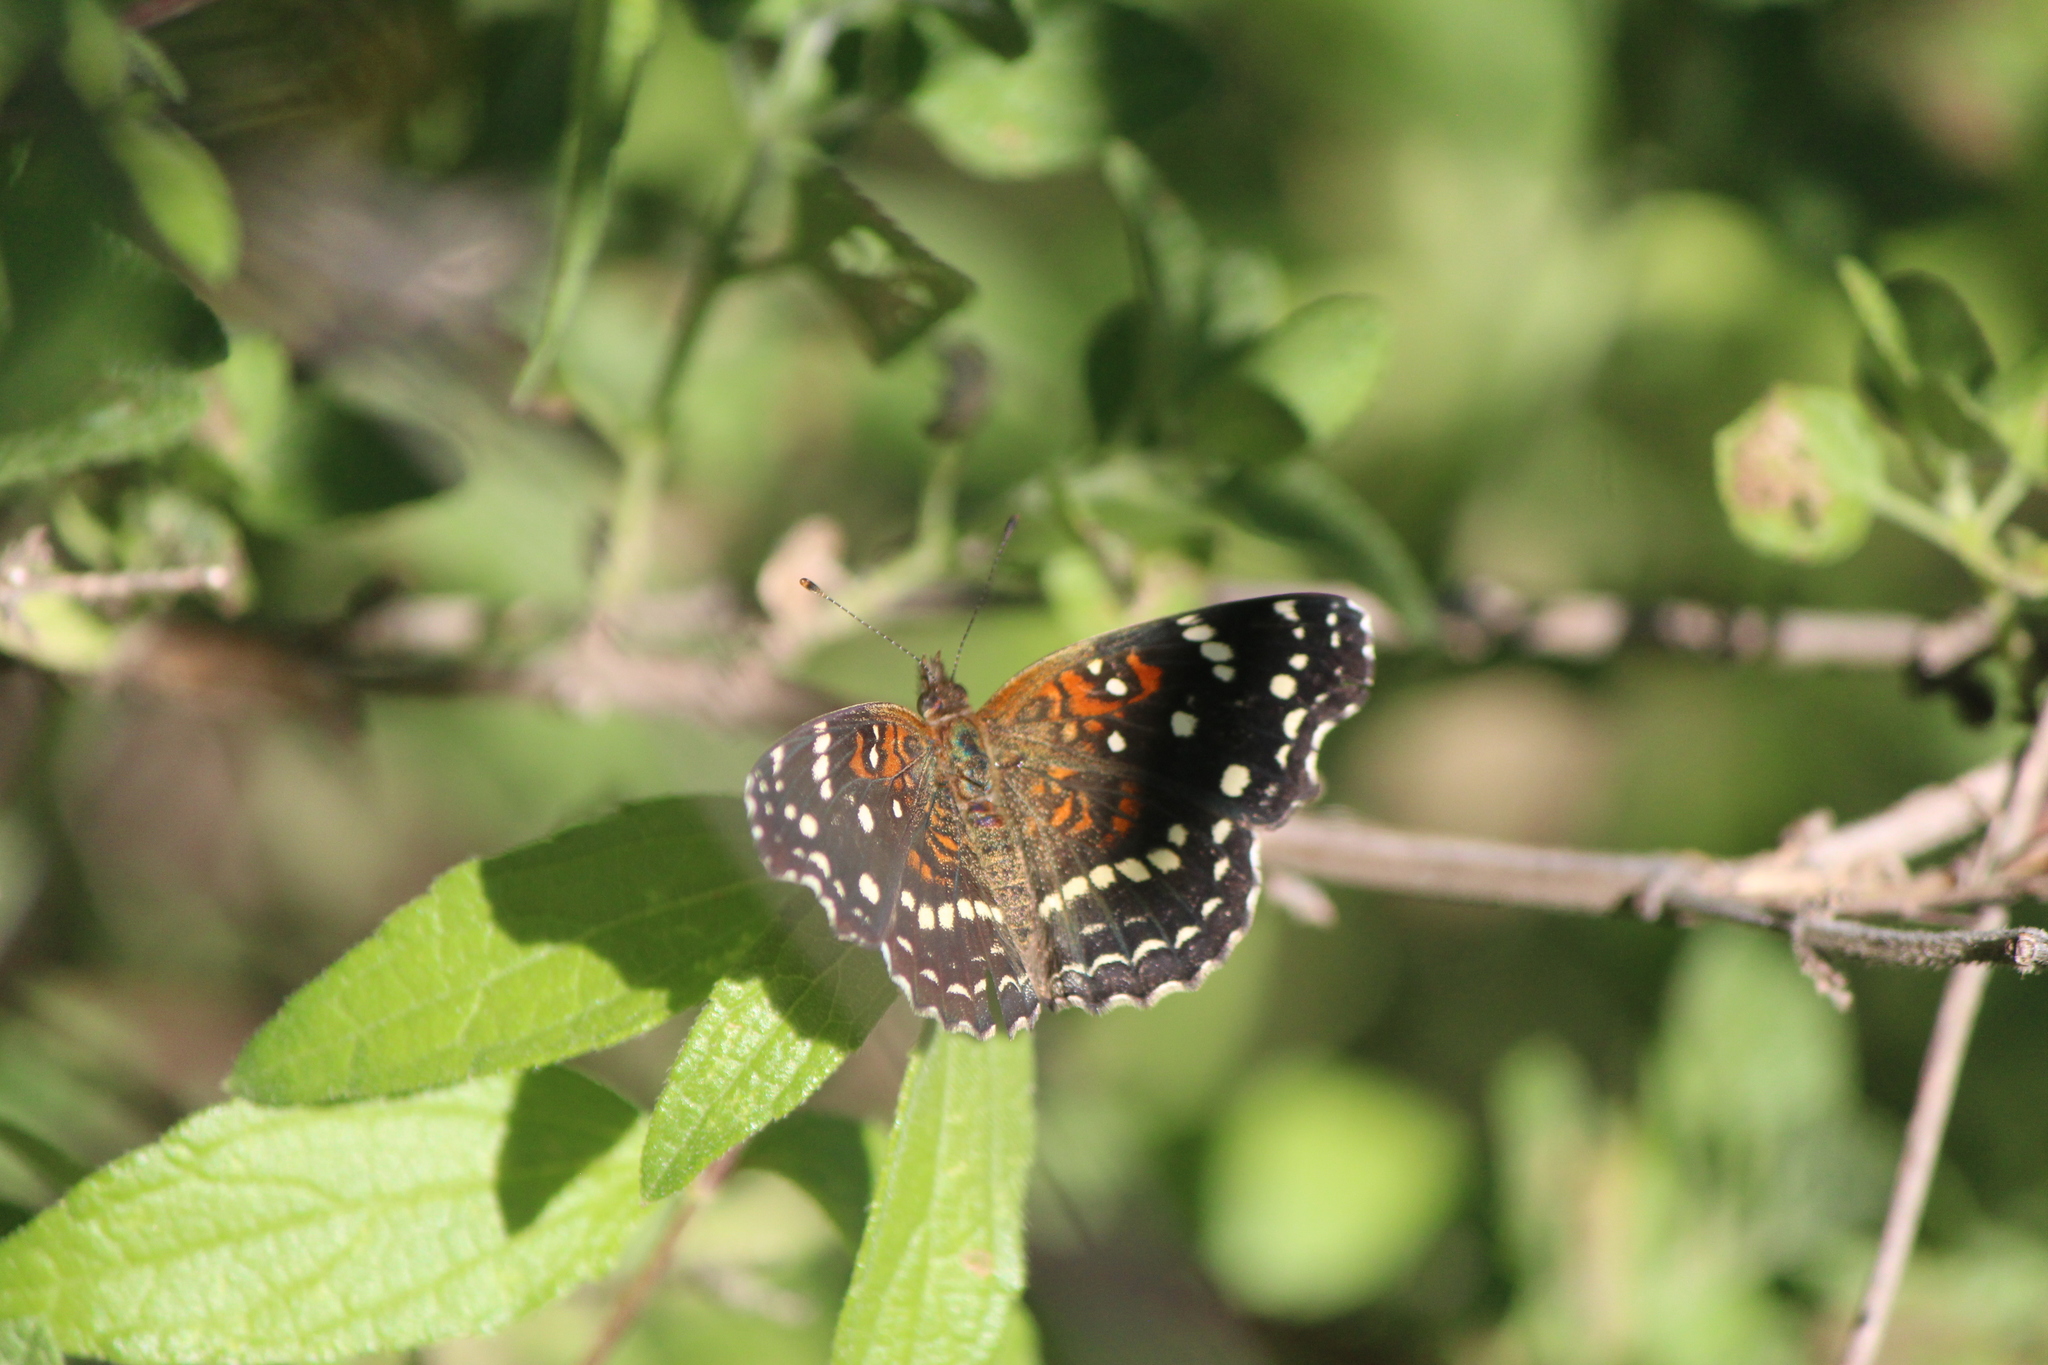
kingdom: Animalia
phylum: Arthropoda
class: Insecta
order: Lepidoptera
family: Nymphalidae
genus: Anthanassa
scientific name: Anthanassa texana
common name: Texan crescent
